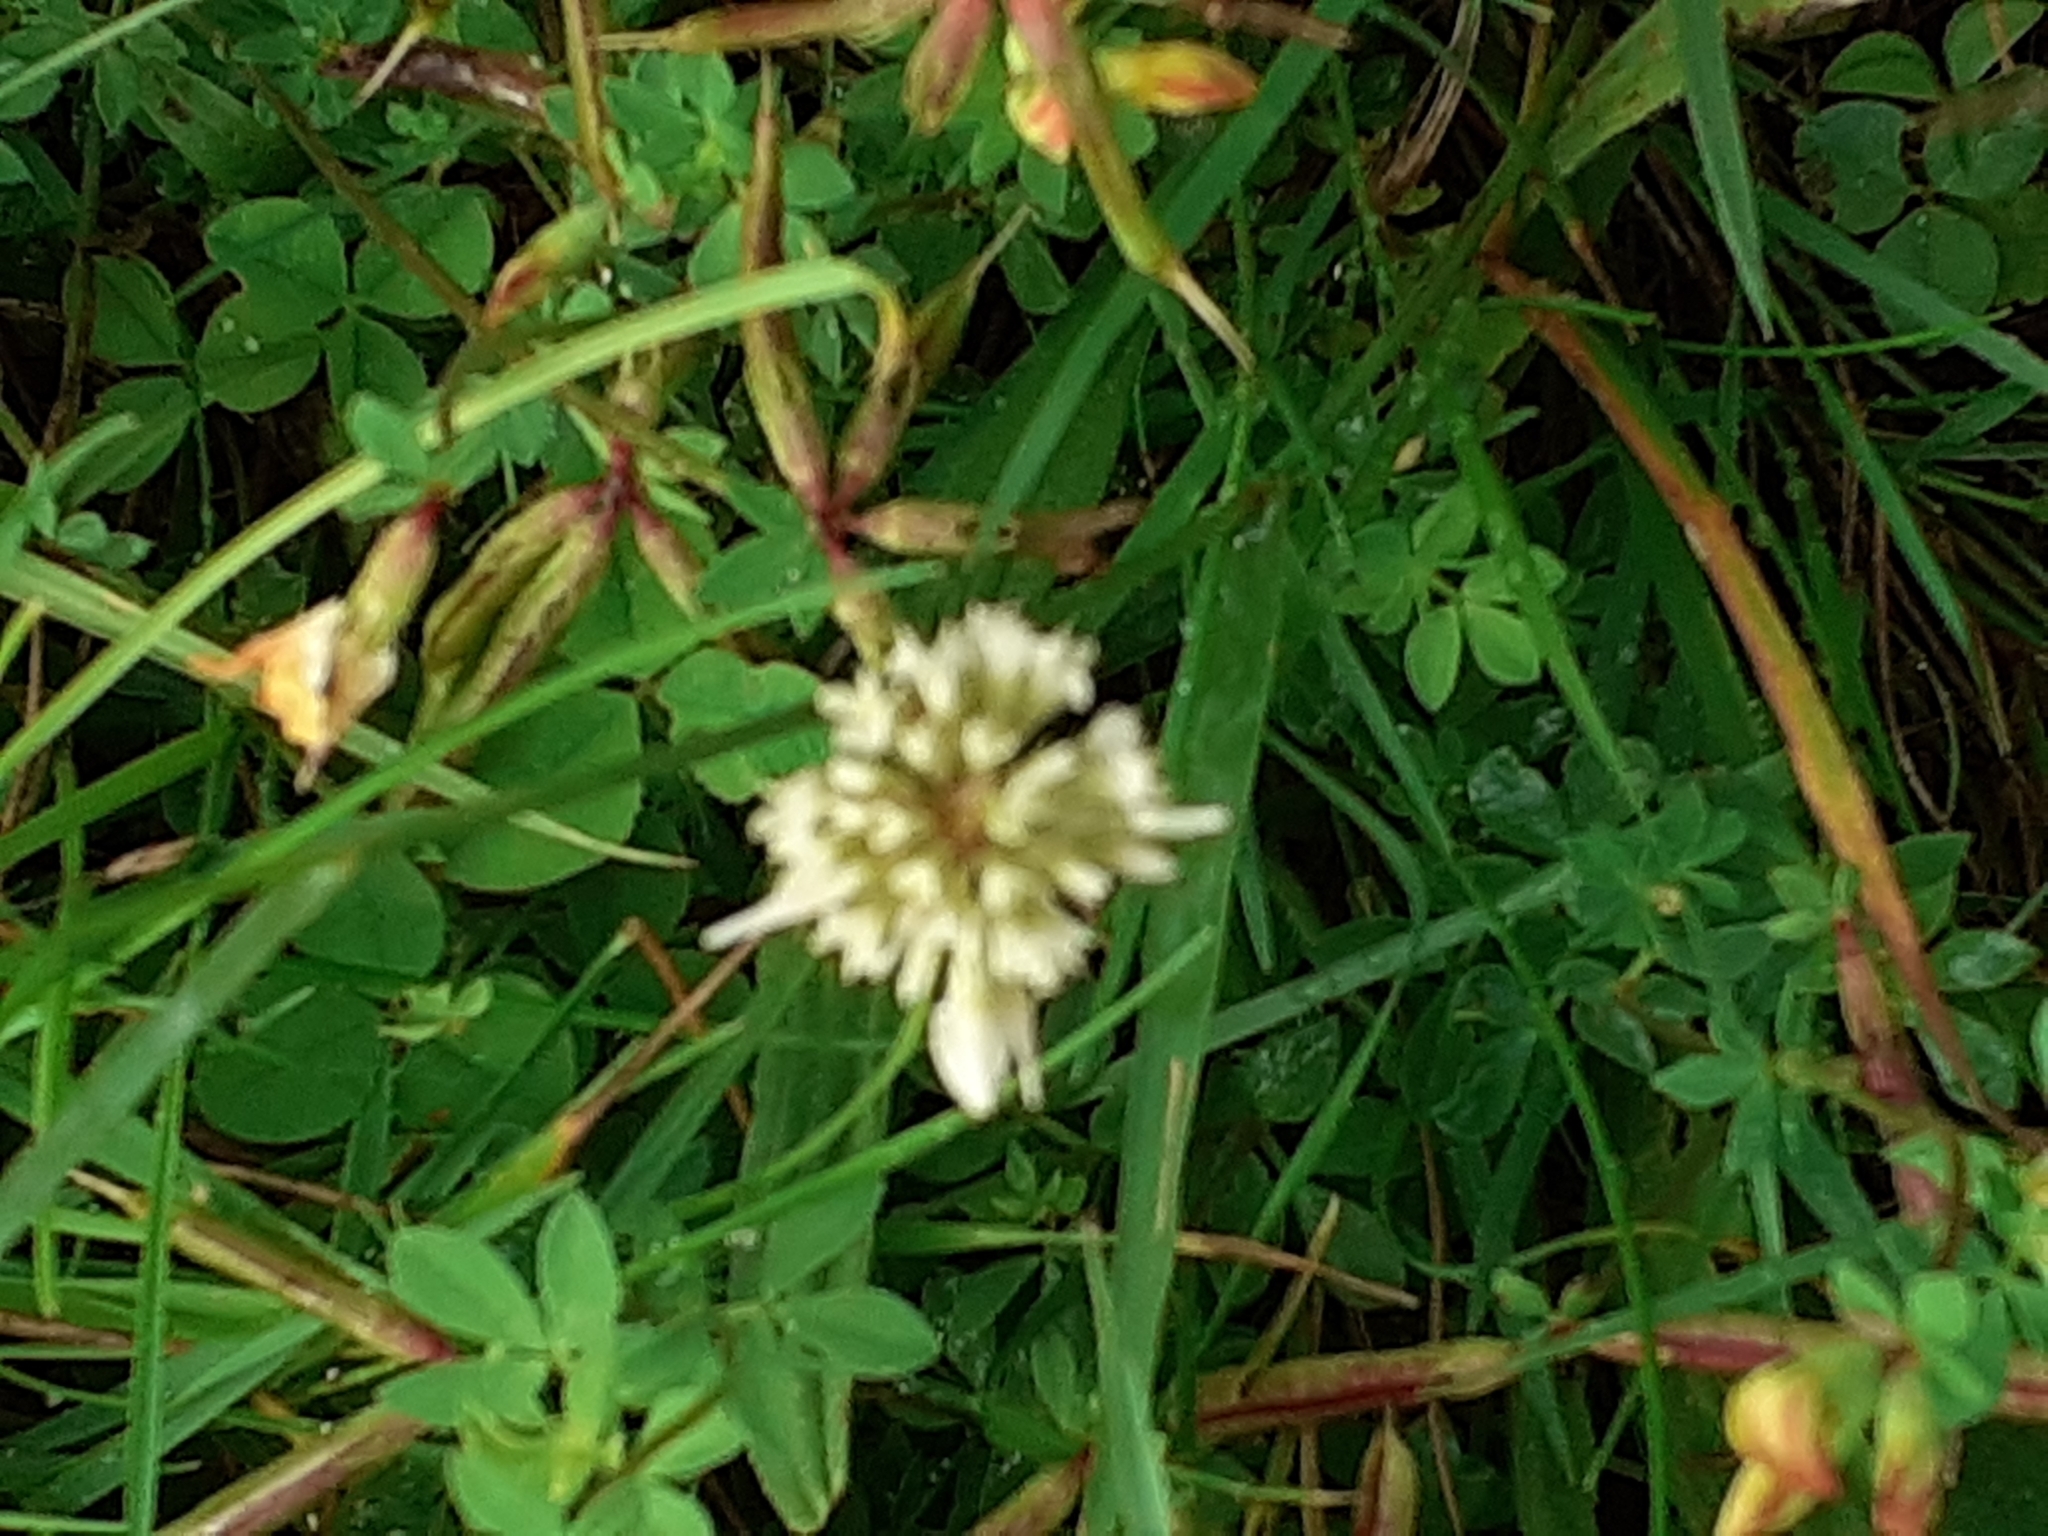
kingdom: Plantae
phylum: Tracheophyta
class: Magnoliopsida
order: Fabales
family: Fabaceae
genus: Trifolium
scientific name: Trifolium repens
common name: White clover
